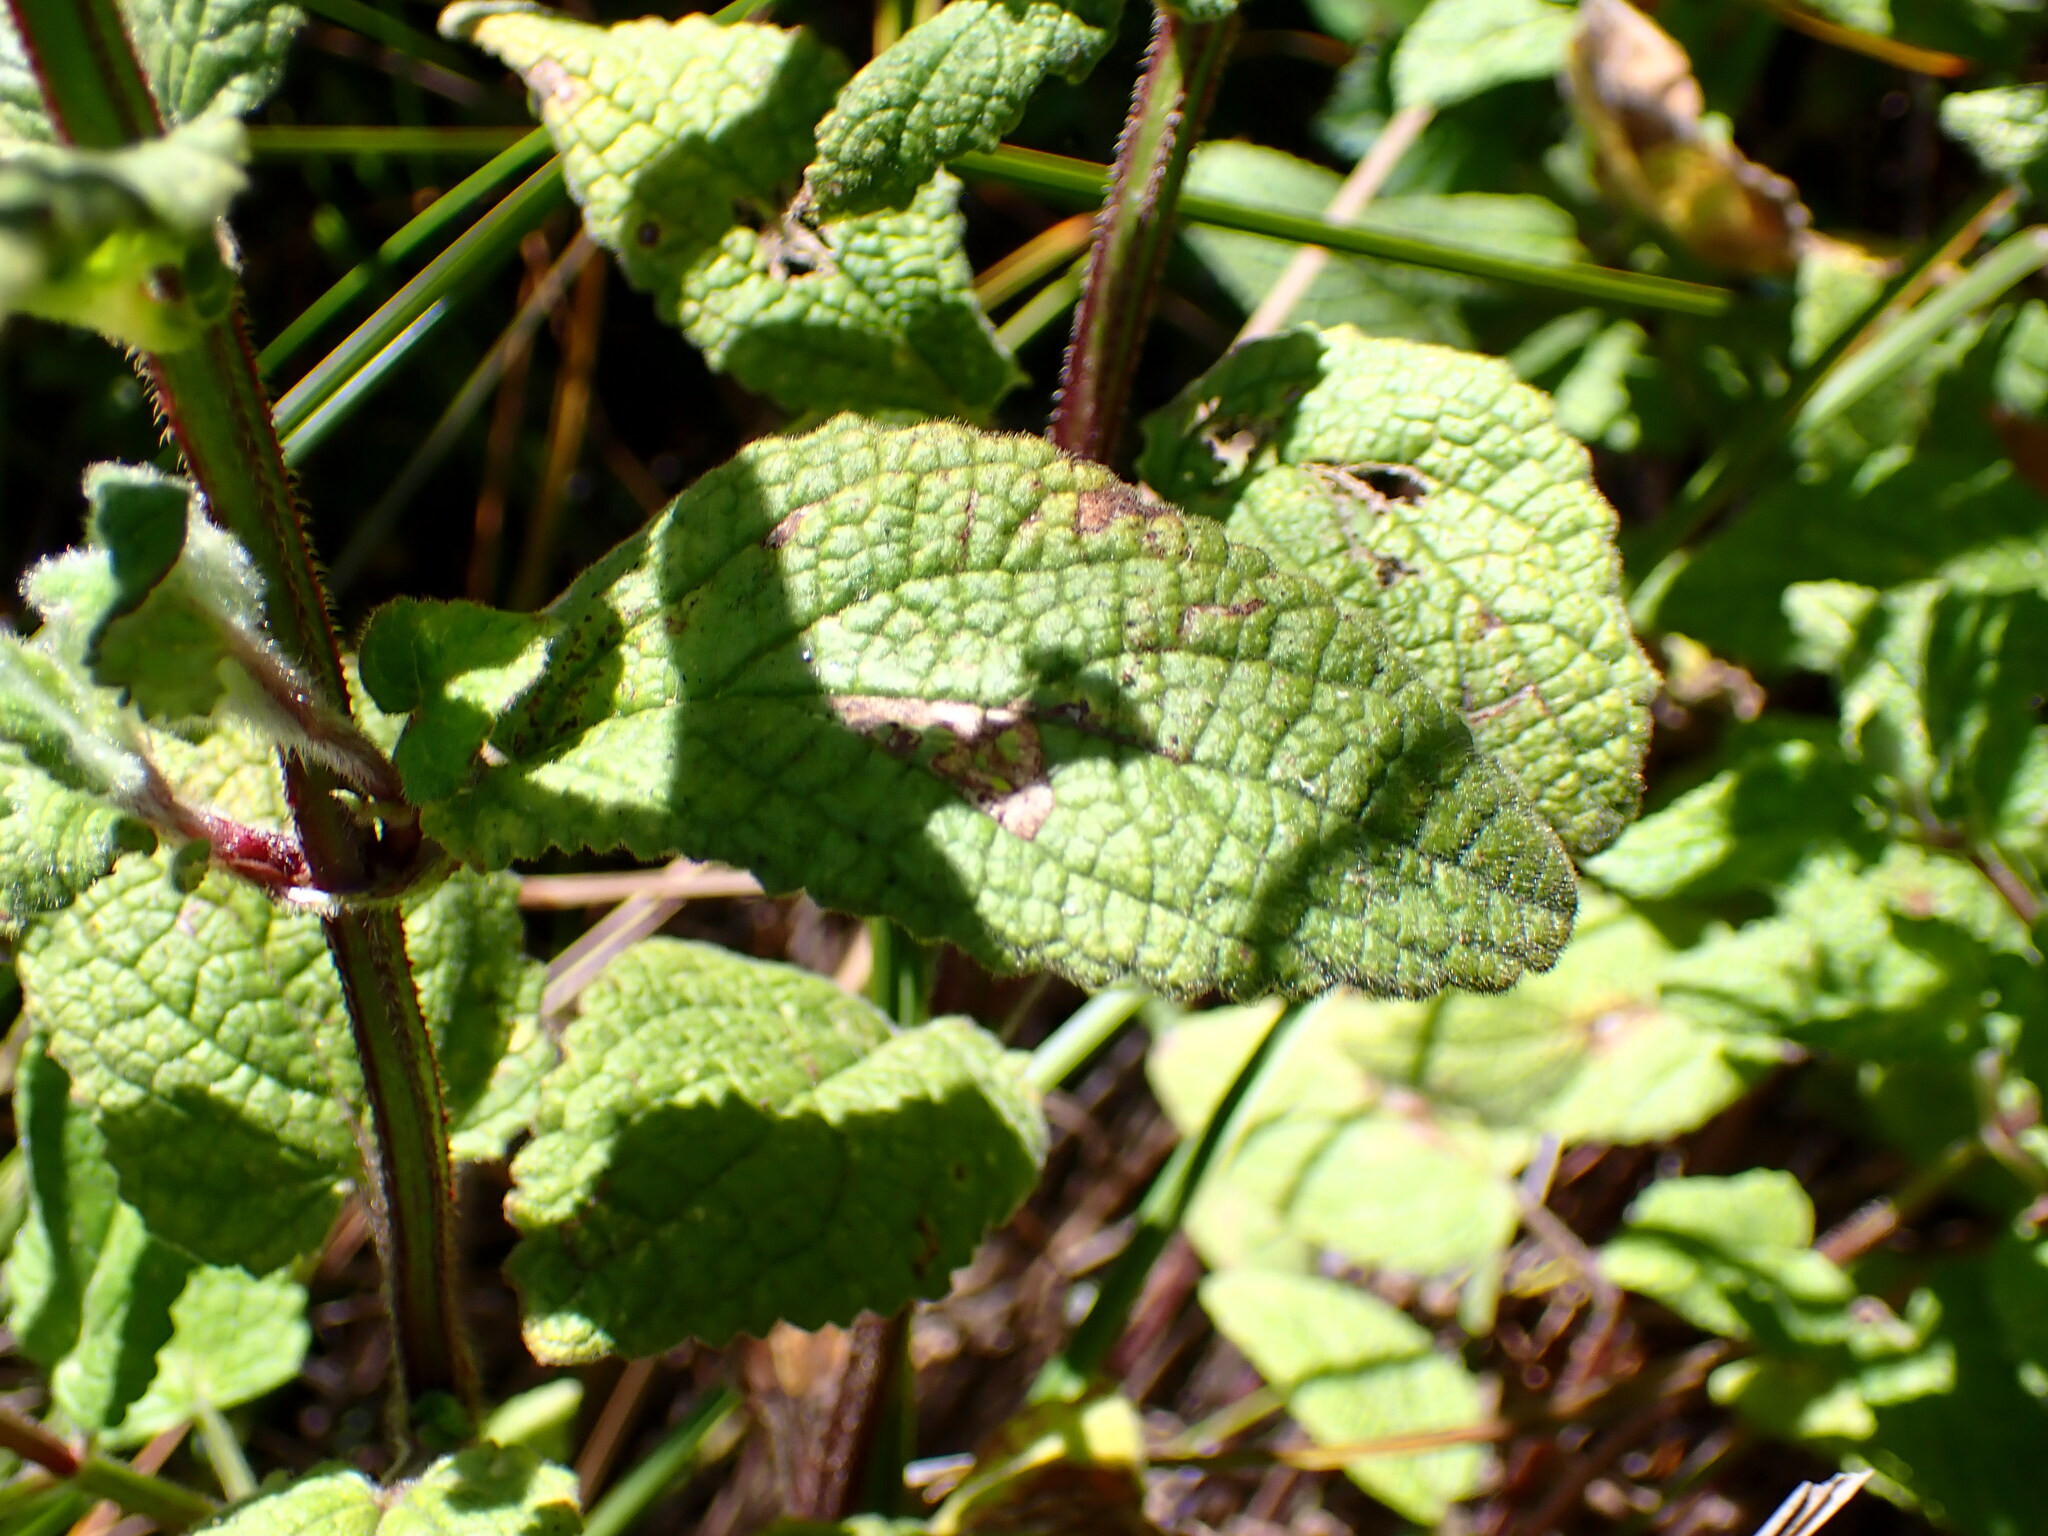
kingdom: Plantae
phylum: Tracheophyta
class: Magnoliopsida
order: Lamiales
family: Lamiaceae
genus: Stachys
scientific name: Stachys chamissonis
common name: Coastal hedge-nettle
